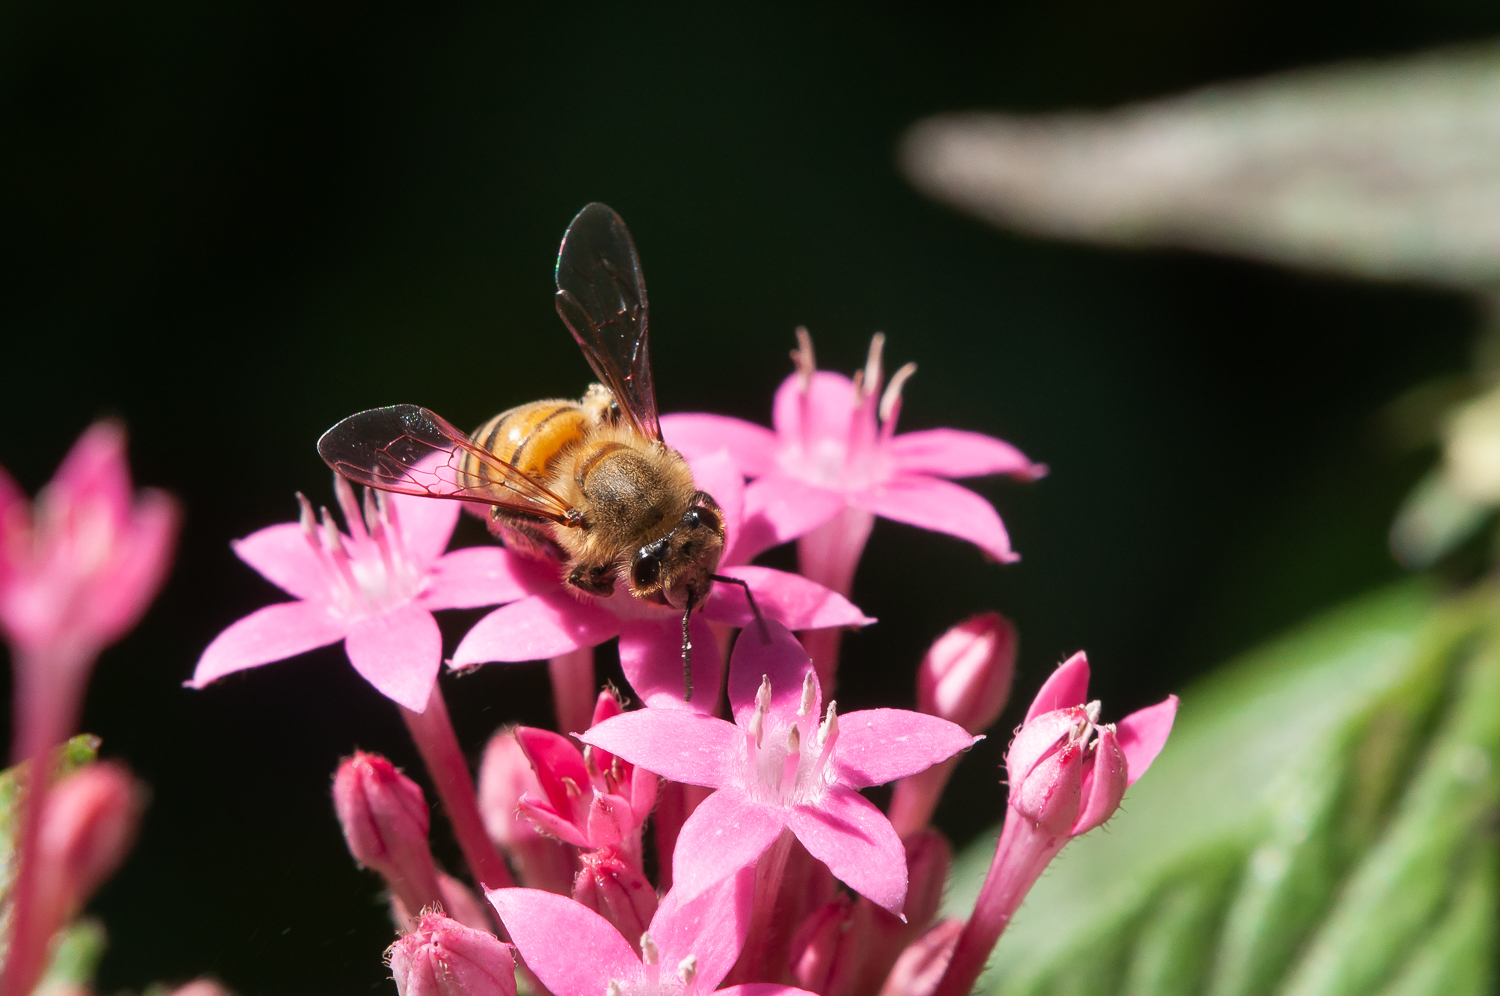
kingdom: Animalia
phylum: Arthropoda
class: Insecta
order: Hymenoptera
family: Apidae
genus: Apis
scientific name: Apis mellifera
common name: Honey bee
